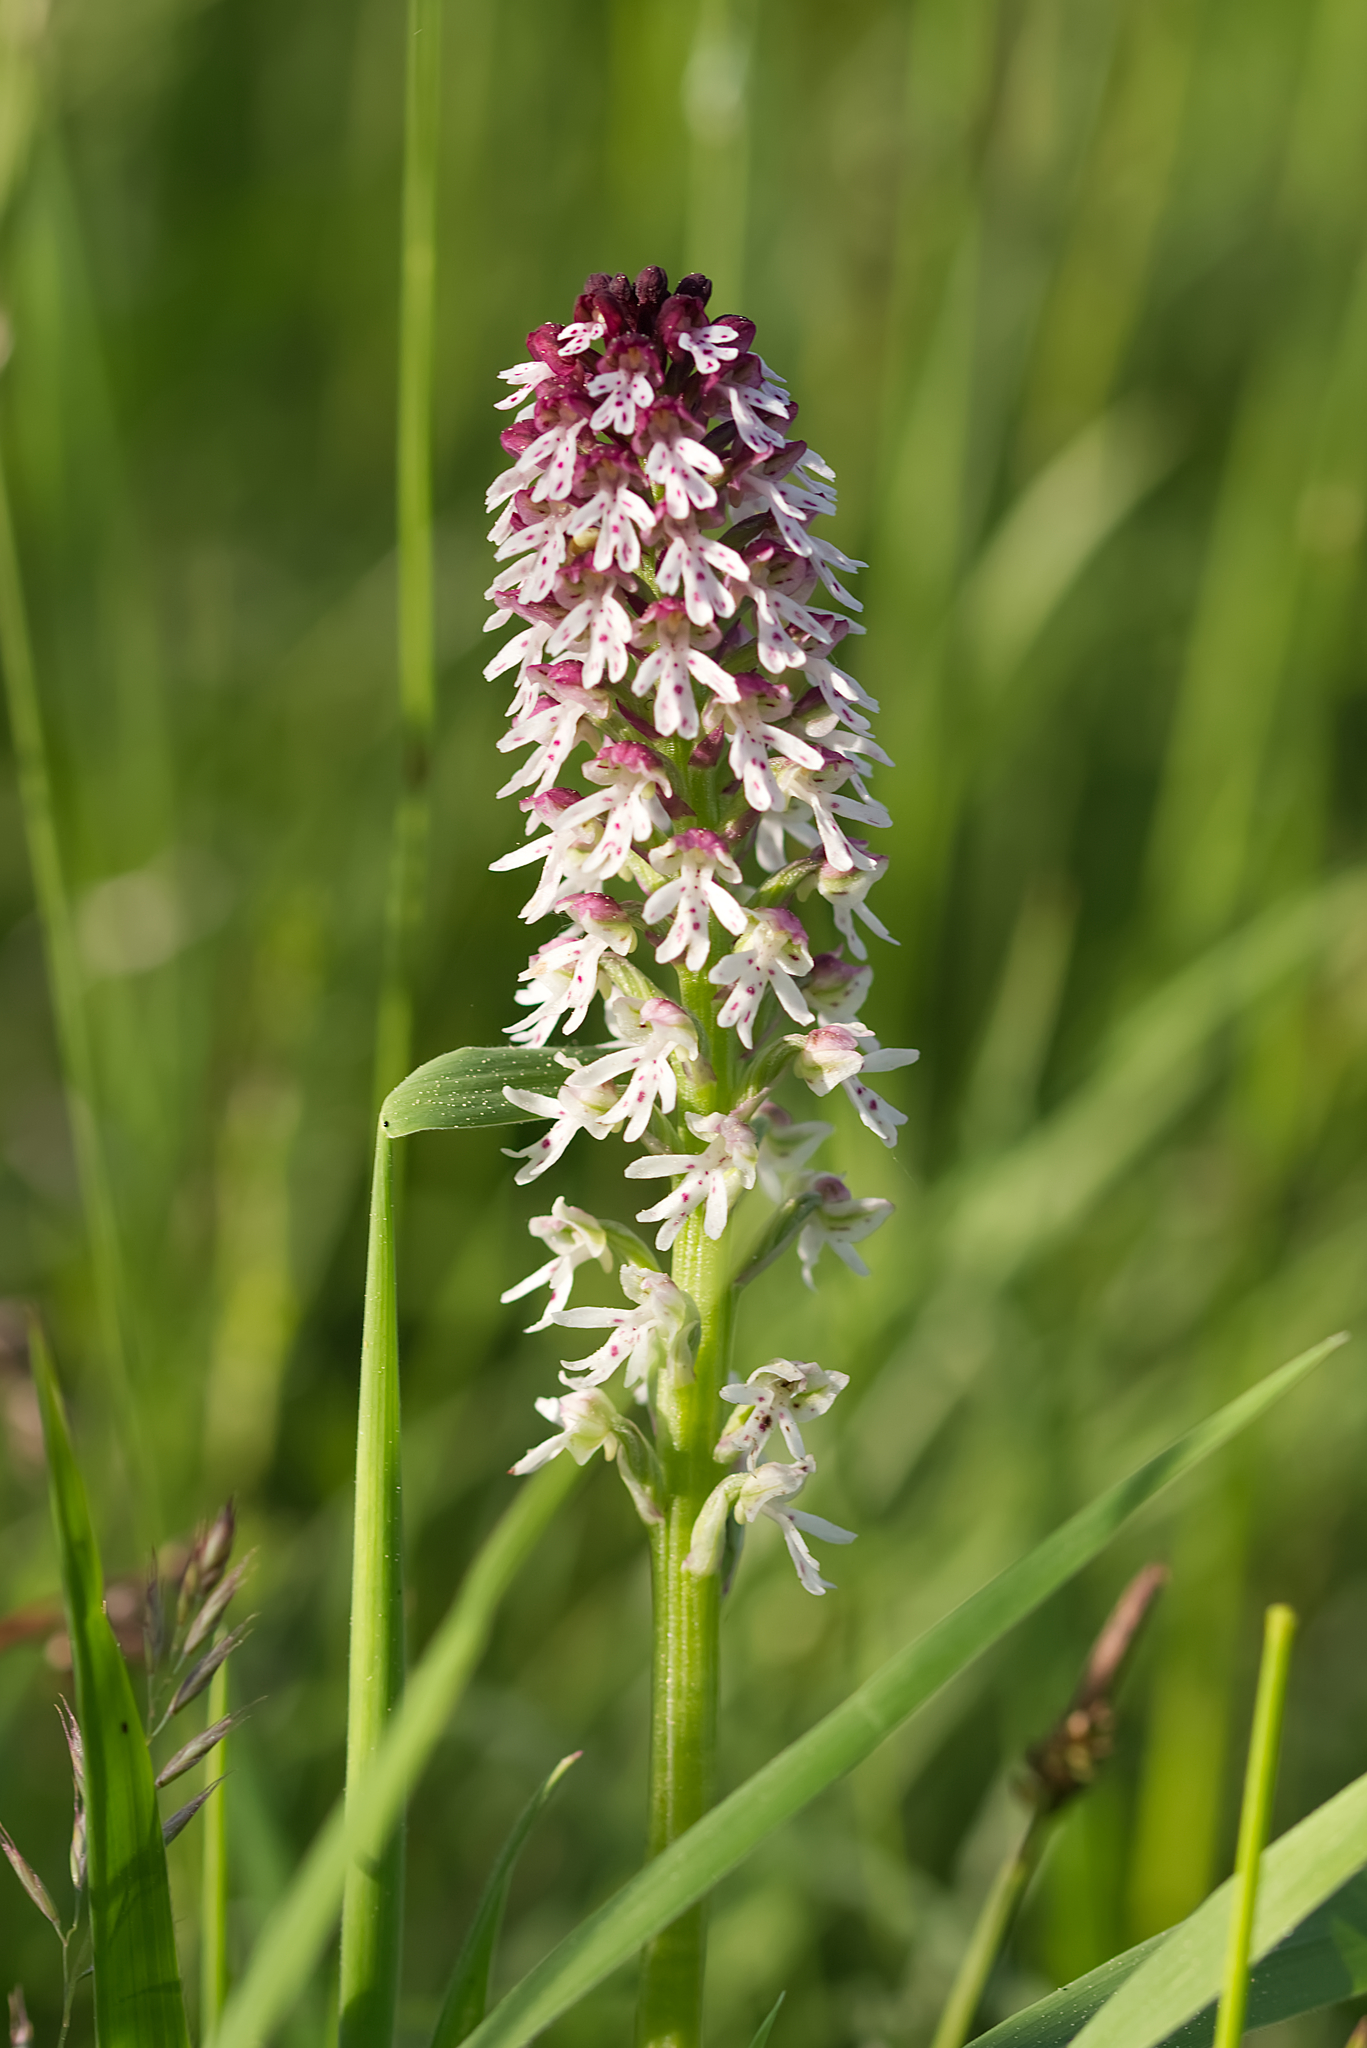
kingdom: Plantae
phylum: Tracheophyta
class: Liliopsida
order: Asparagales
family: Orchidaceae
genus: Neotinea
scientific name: Neotinea ustulata
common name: Burnt orchid
